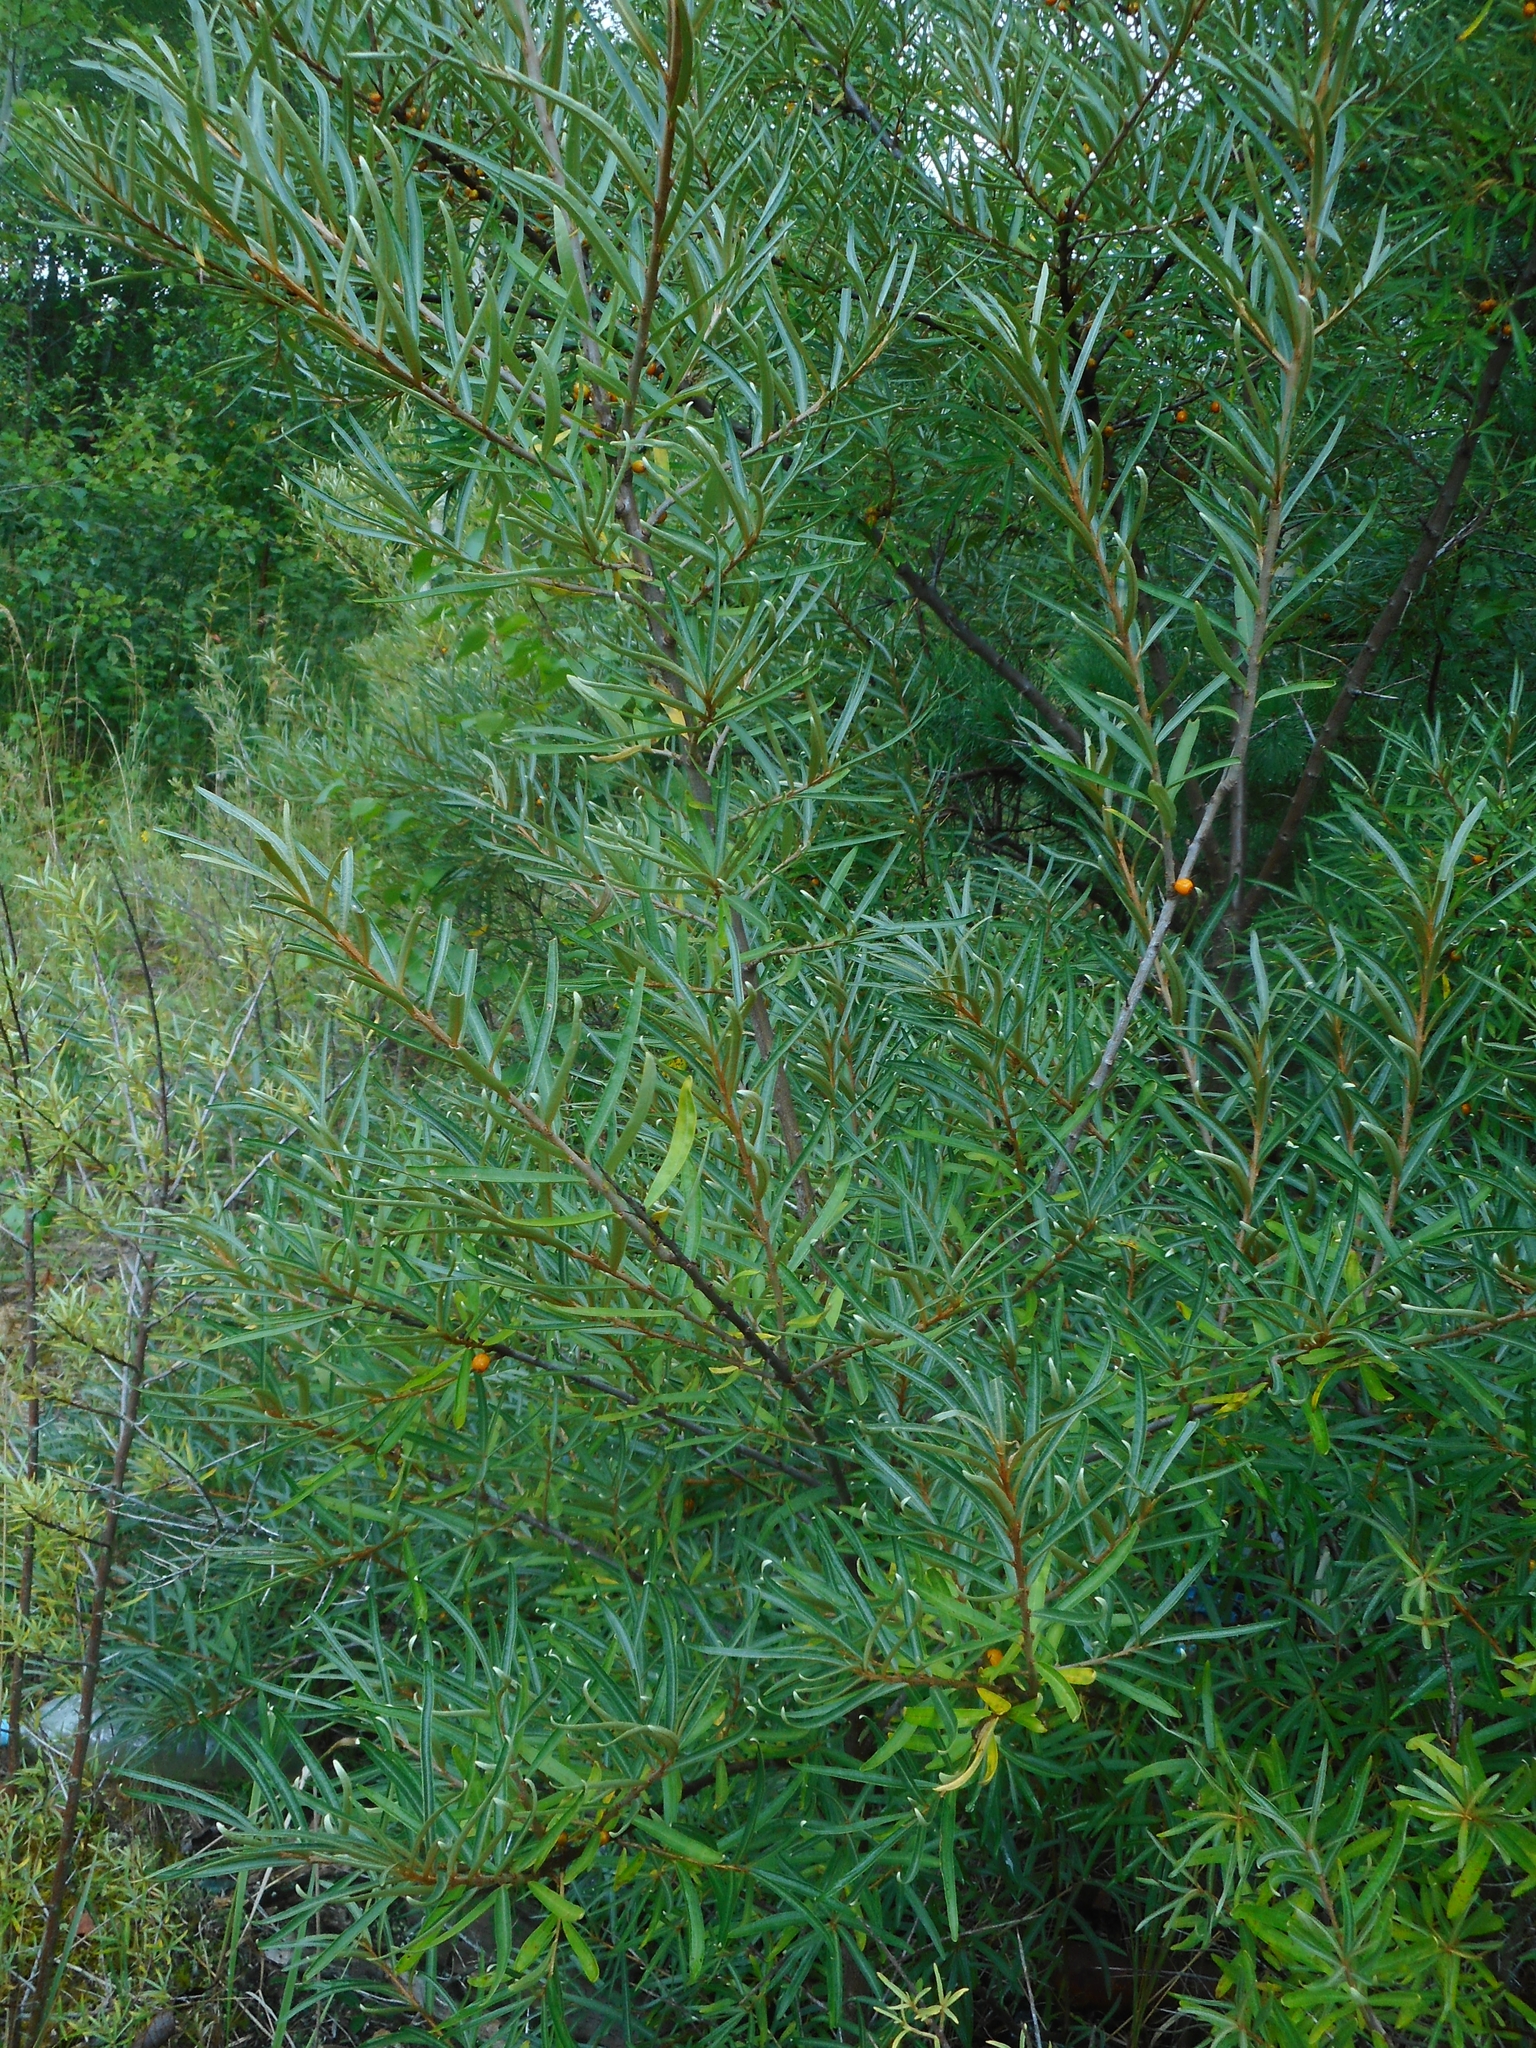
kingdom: Plantae
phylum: Tracheophyta
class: Magnoliopsida
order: Rosales
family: Elaeagnaceae
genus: Hippophae
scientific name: Hippophae rhamnoides
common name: Sea-buckthorn
